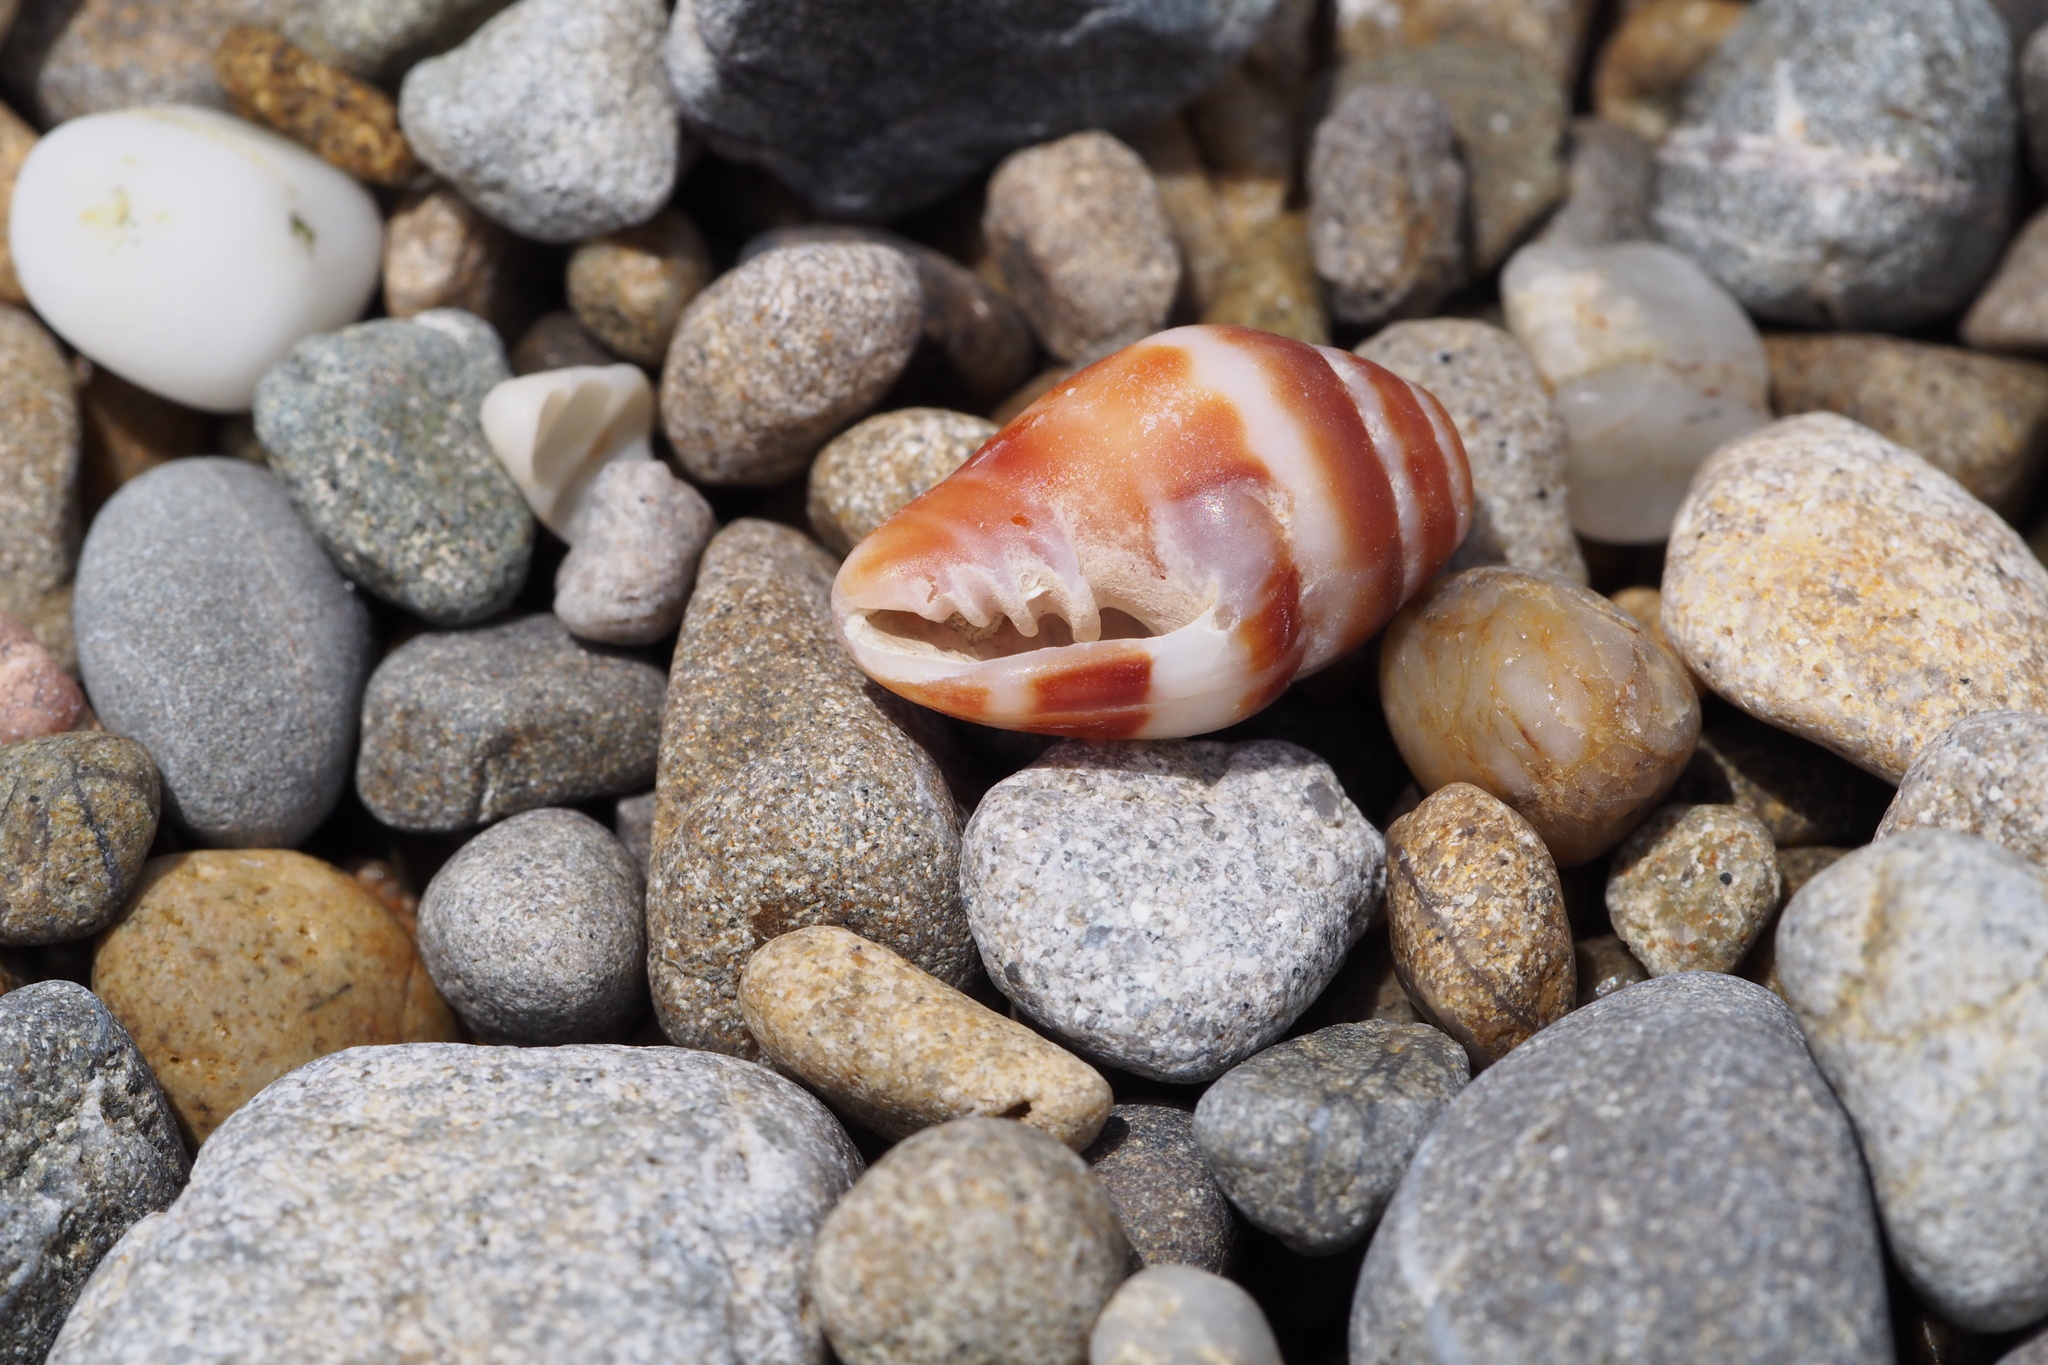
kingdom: Animalia
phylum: Mollusca
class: Gastropoda
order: Neogastropoda
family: Costellariidae
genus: Vexillum
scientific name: Vexillum consanguineum
